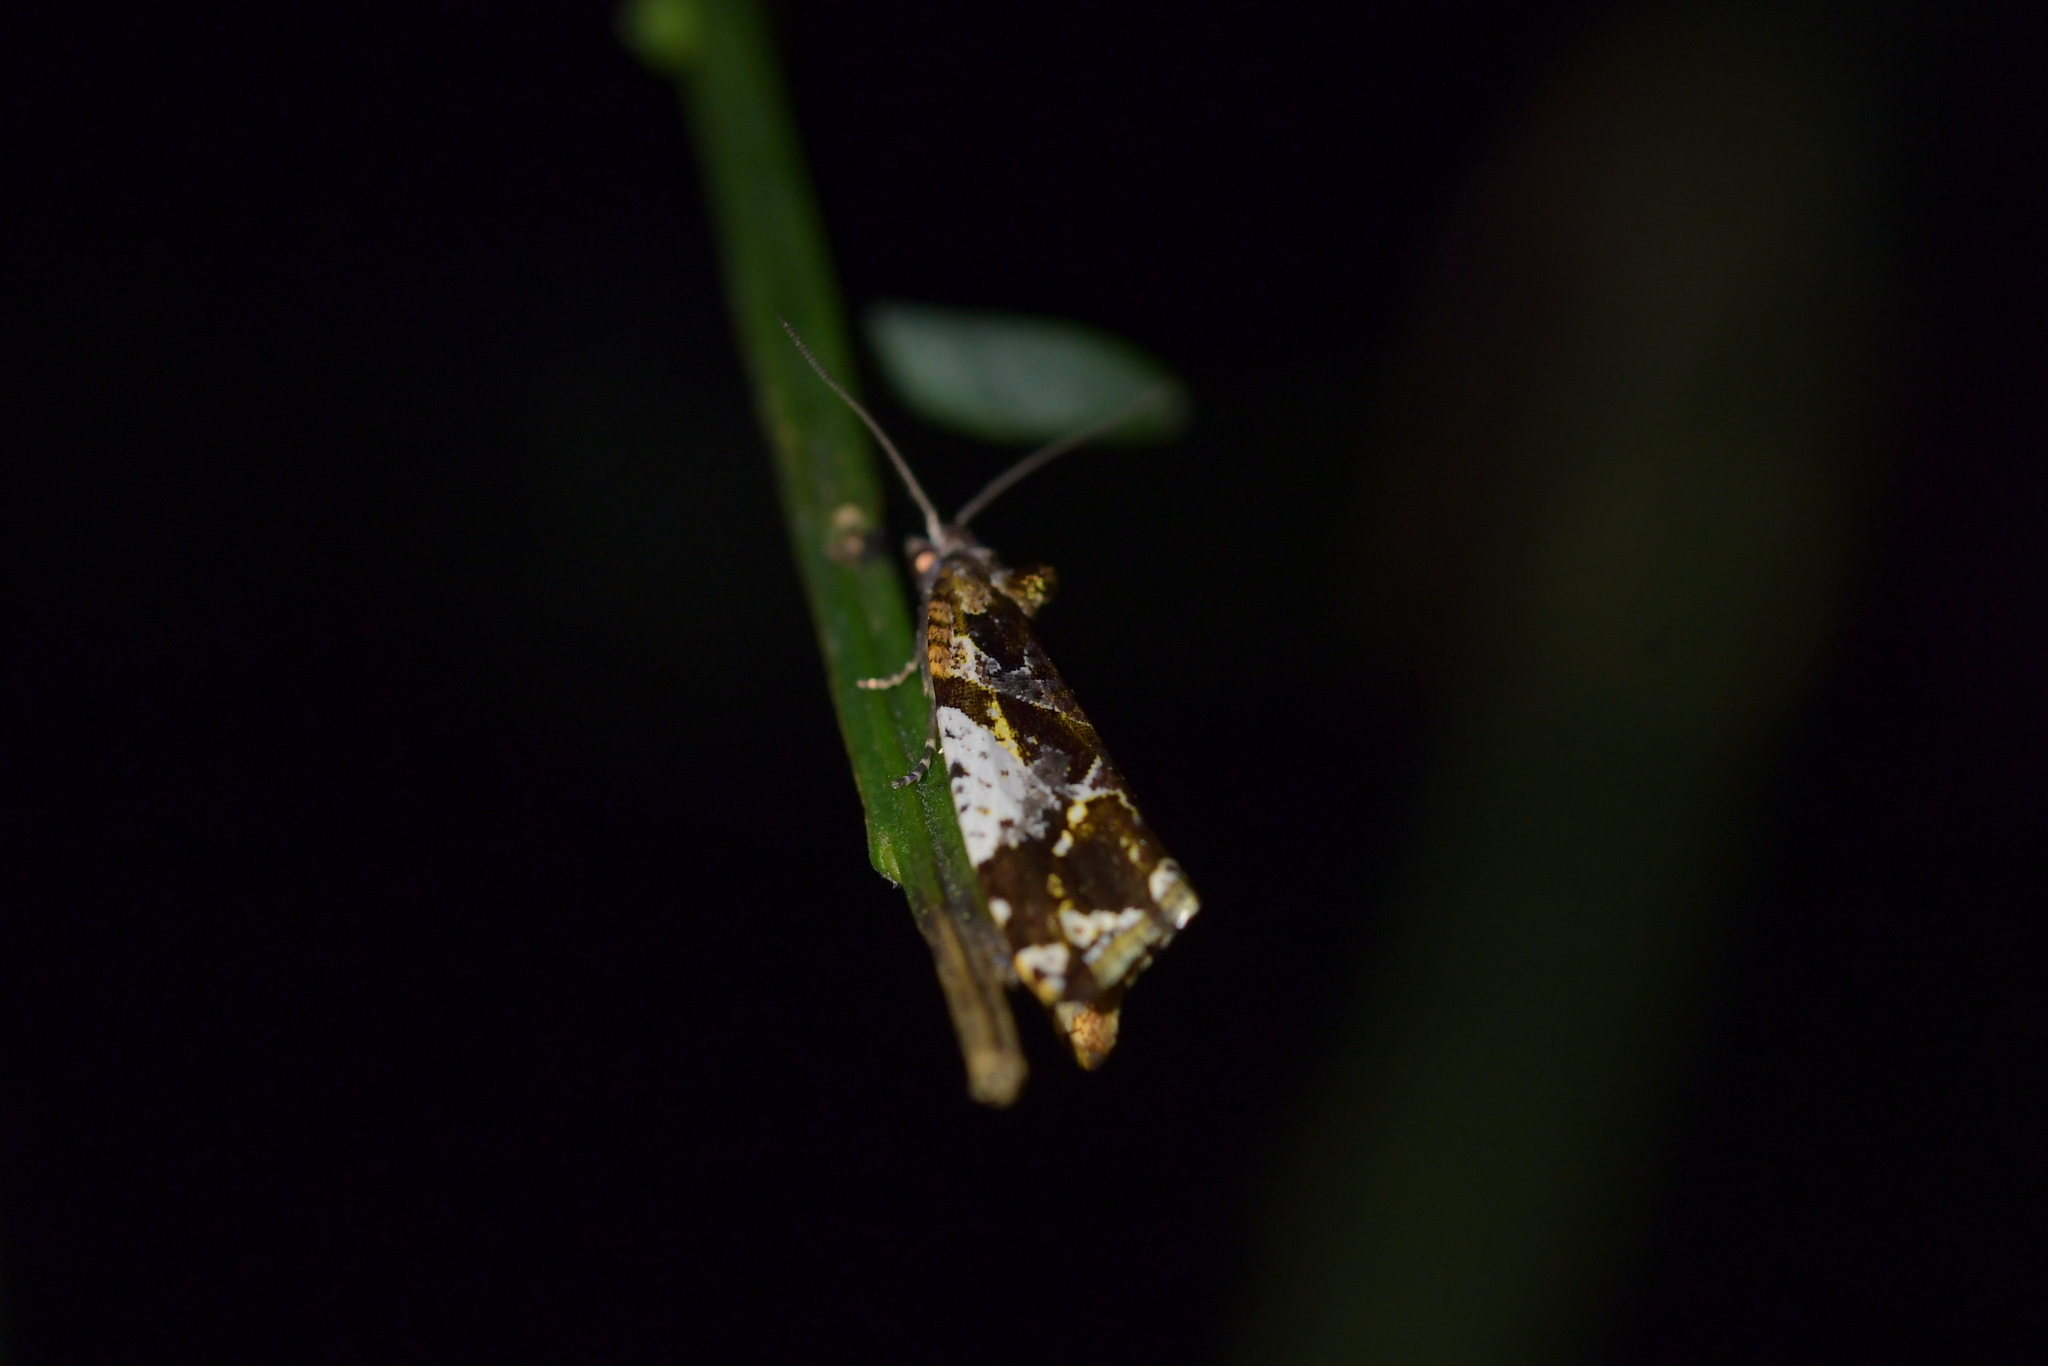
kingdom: Animalia
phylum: Arthropoda
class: Insecta
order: Lepidoptera
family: Tortricidae
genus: Pyrgotis
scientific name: Pyrgotis plagiatana
